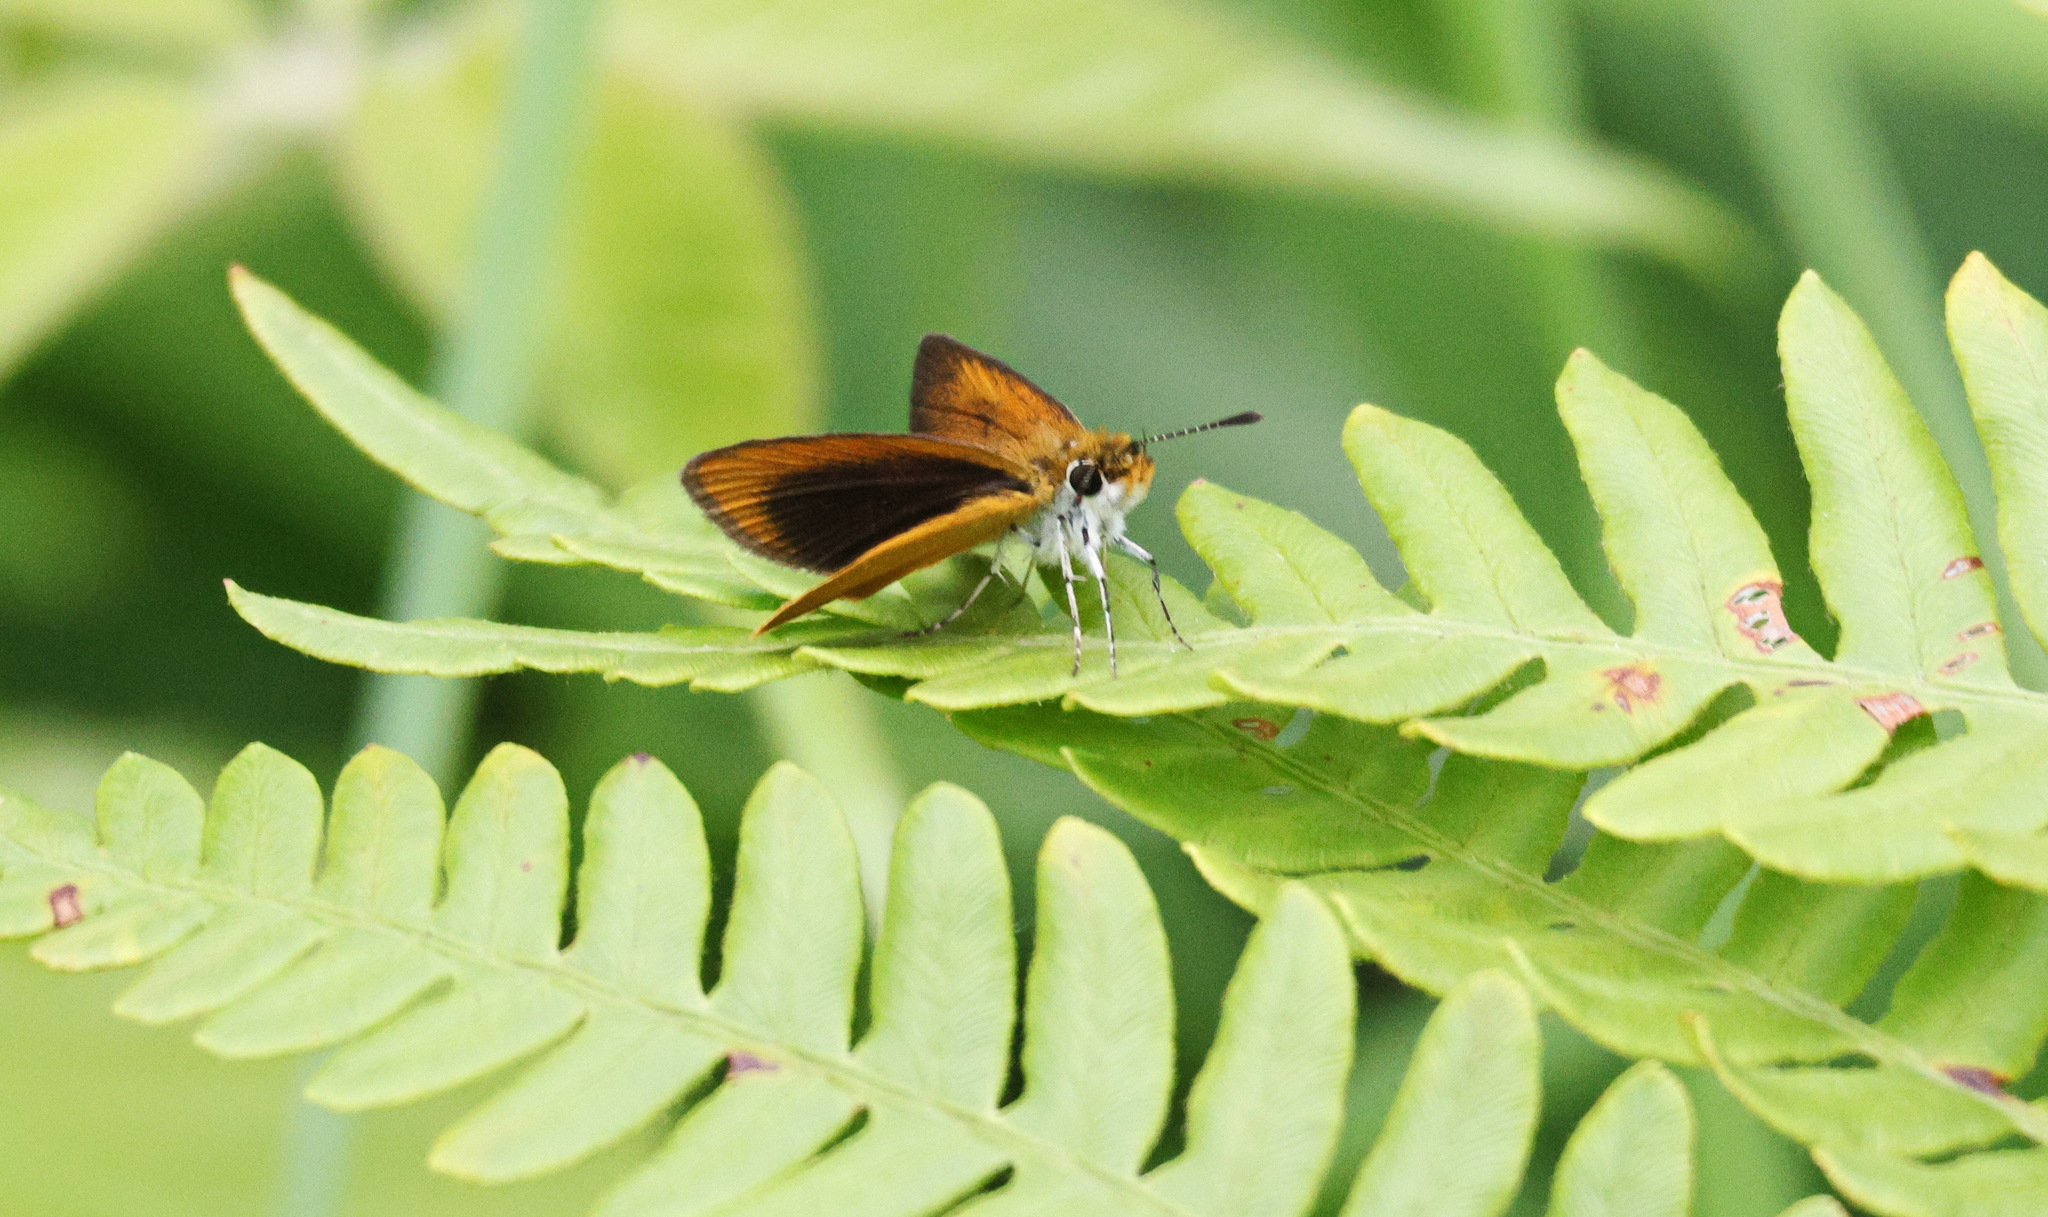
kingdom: Animalia
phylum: Arthropoda
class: Insecta
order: Lepidoptera
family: Hesperiidae
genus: Ancyloxypha
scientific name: Ancyloxypha numitor
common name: Least skipper
